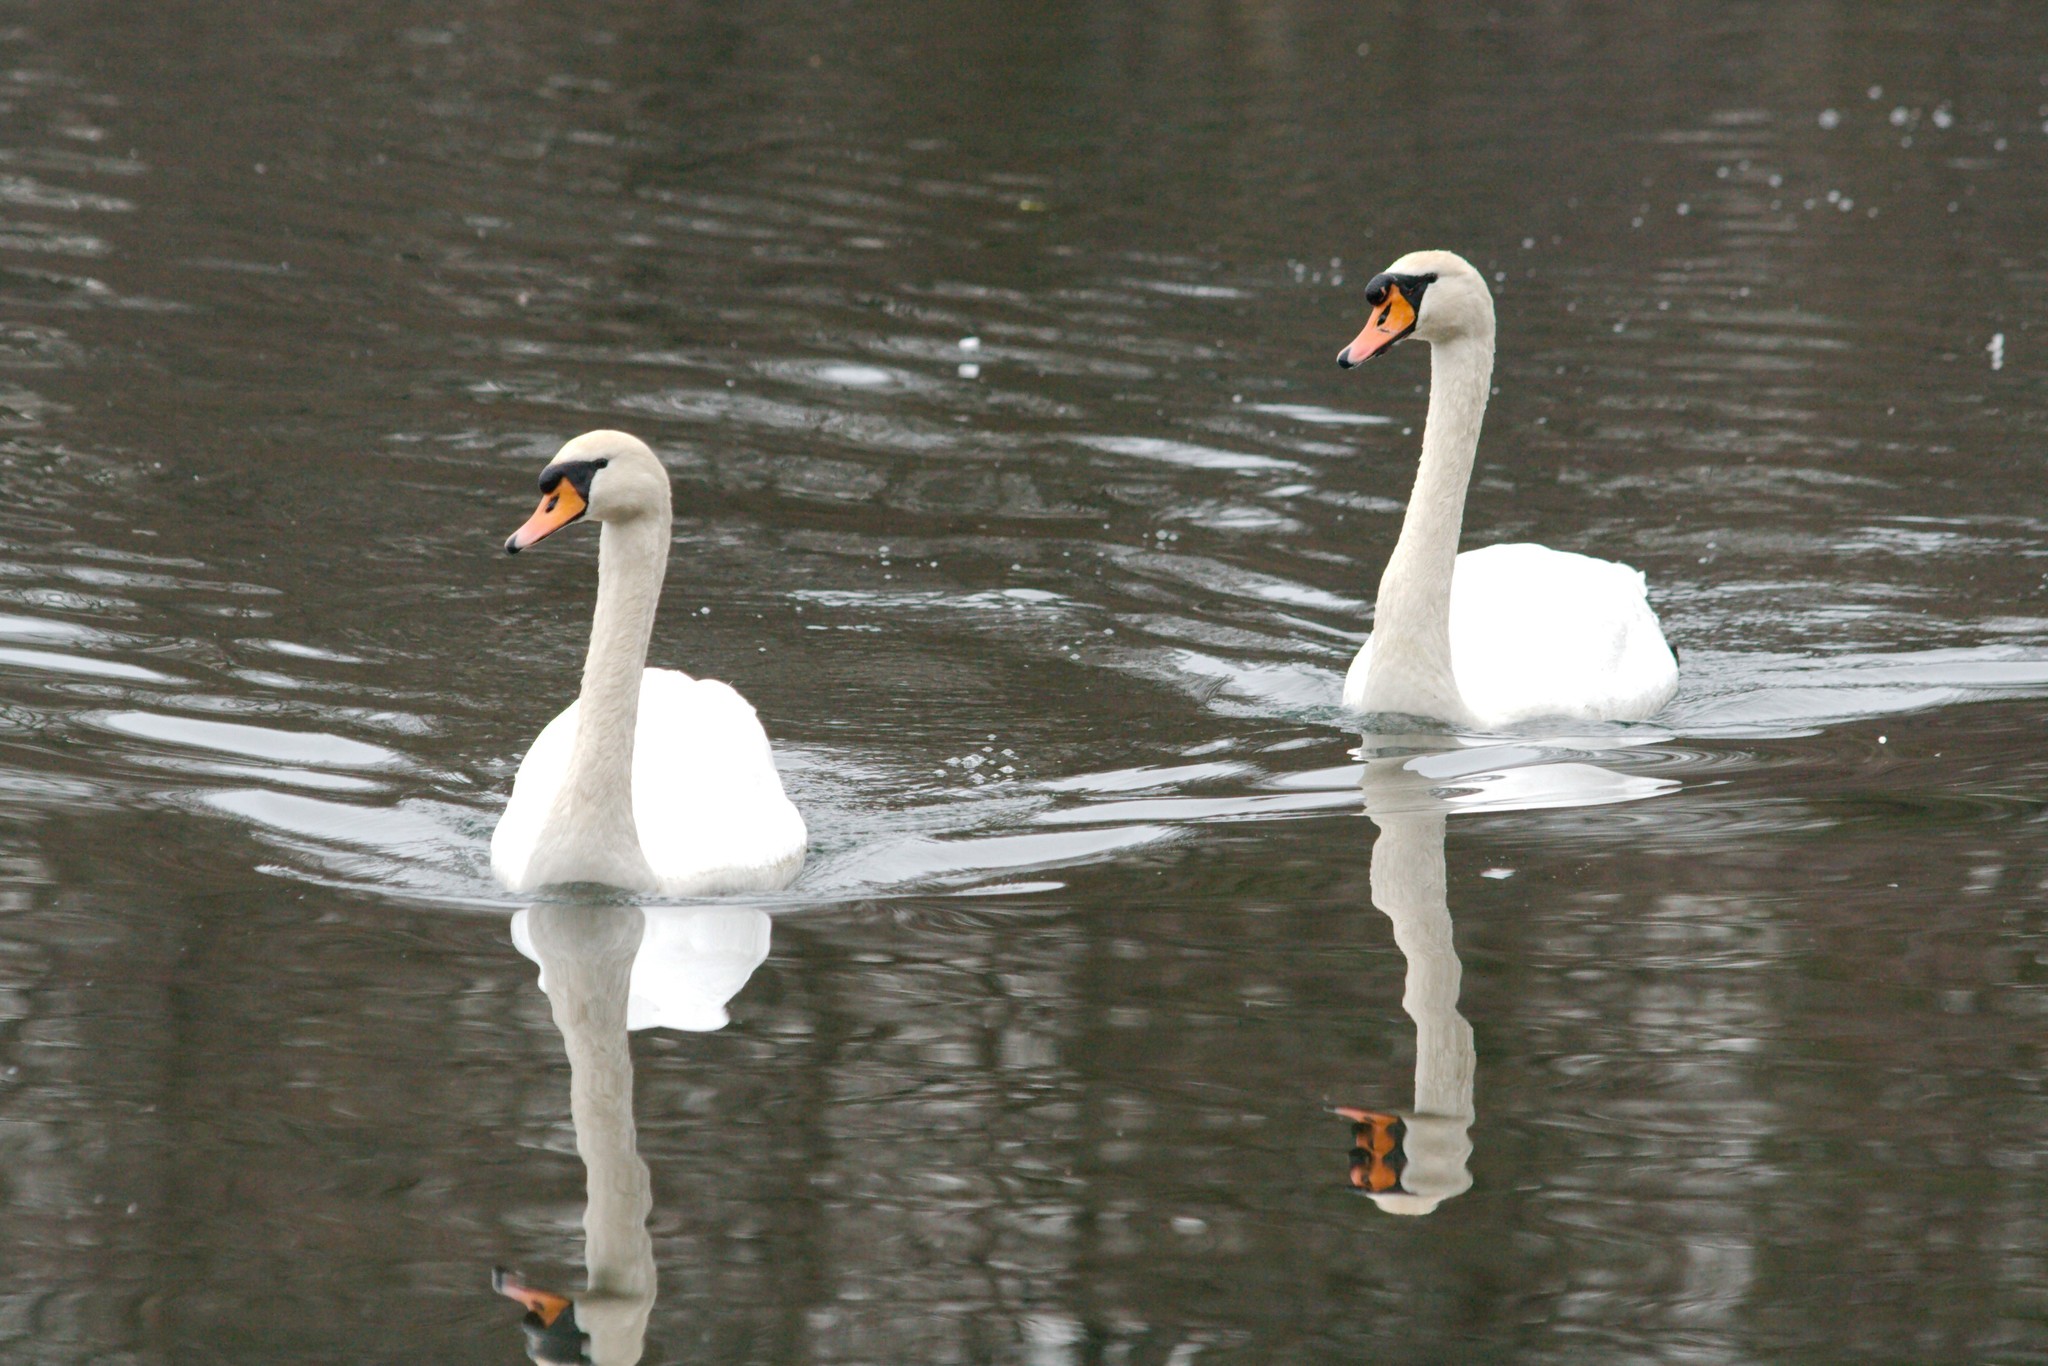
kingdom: Animalia
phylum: Chordata
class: Aves
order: Anseriformes
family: Anatidae
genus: Cygnus
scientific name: Cygnus olor
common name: Mute swan
